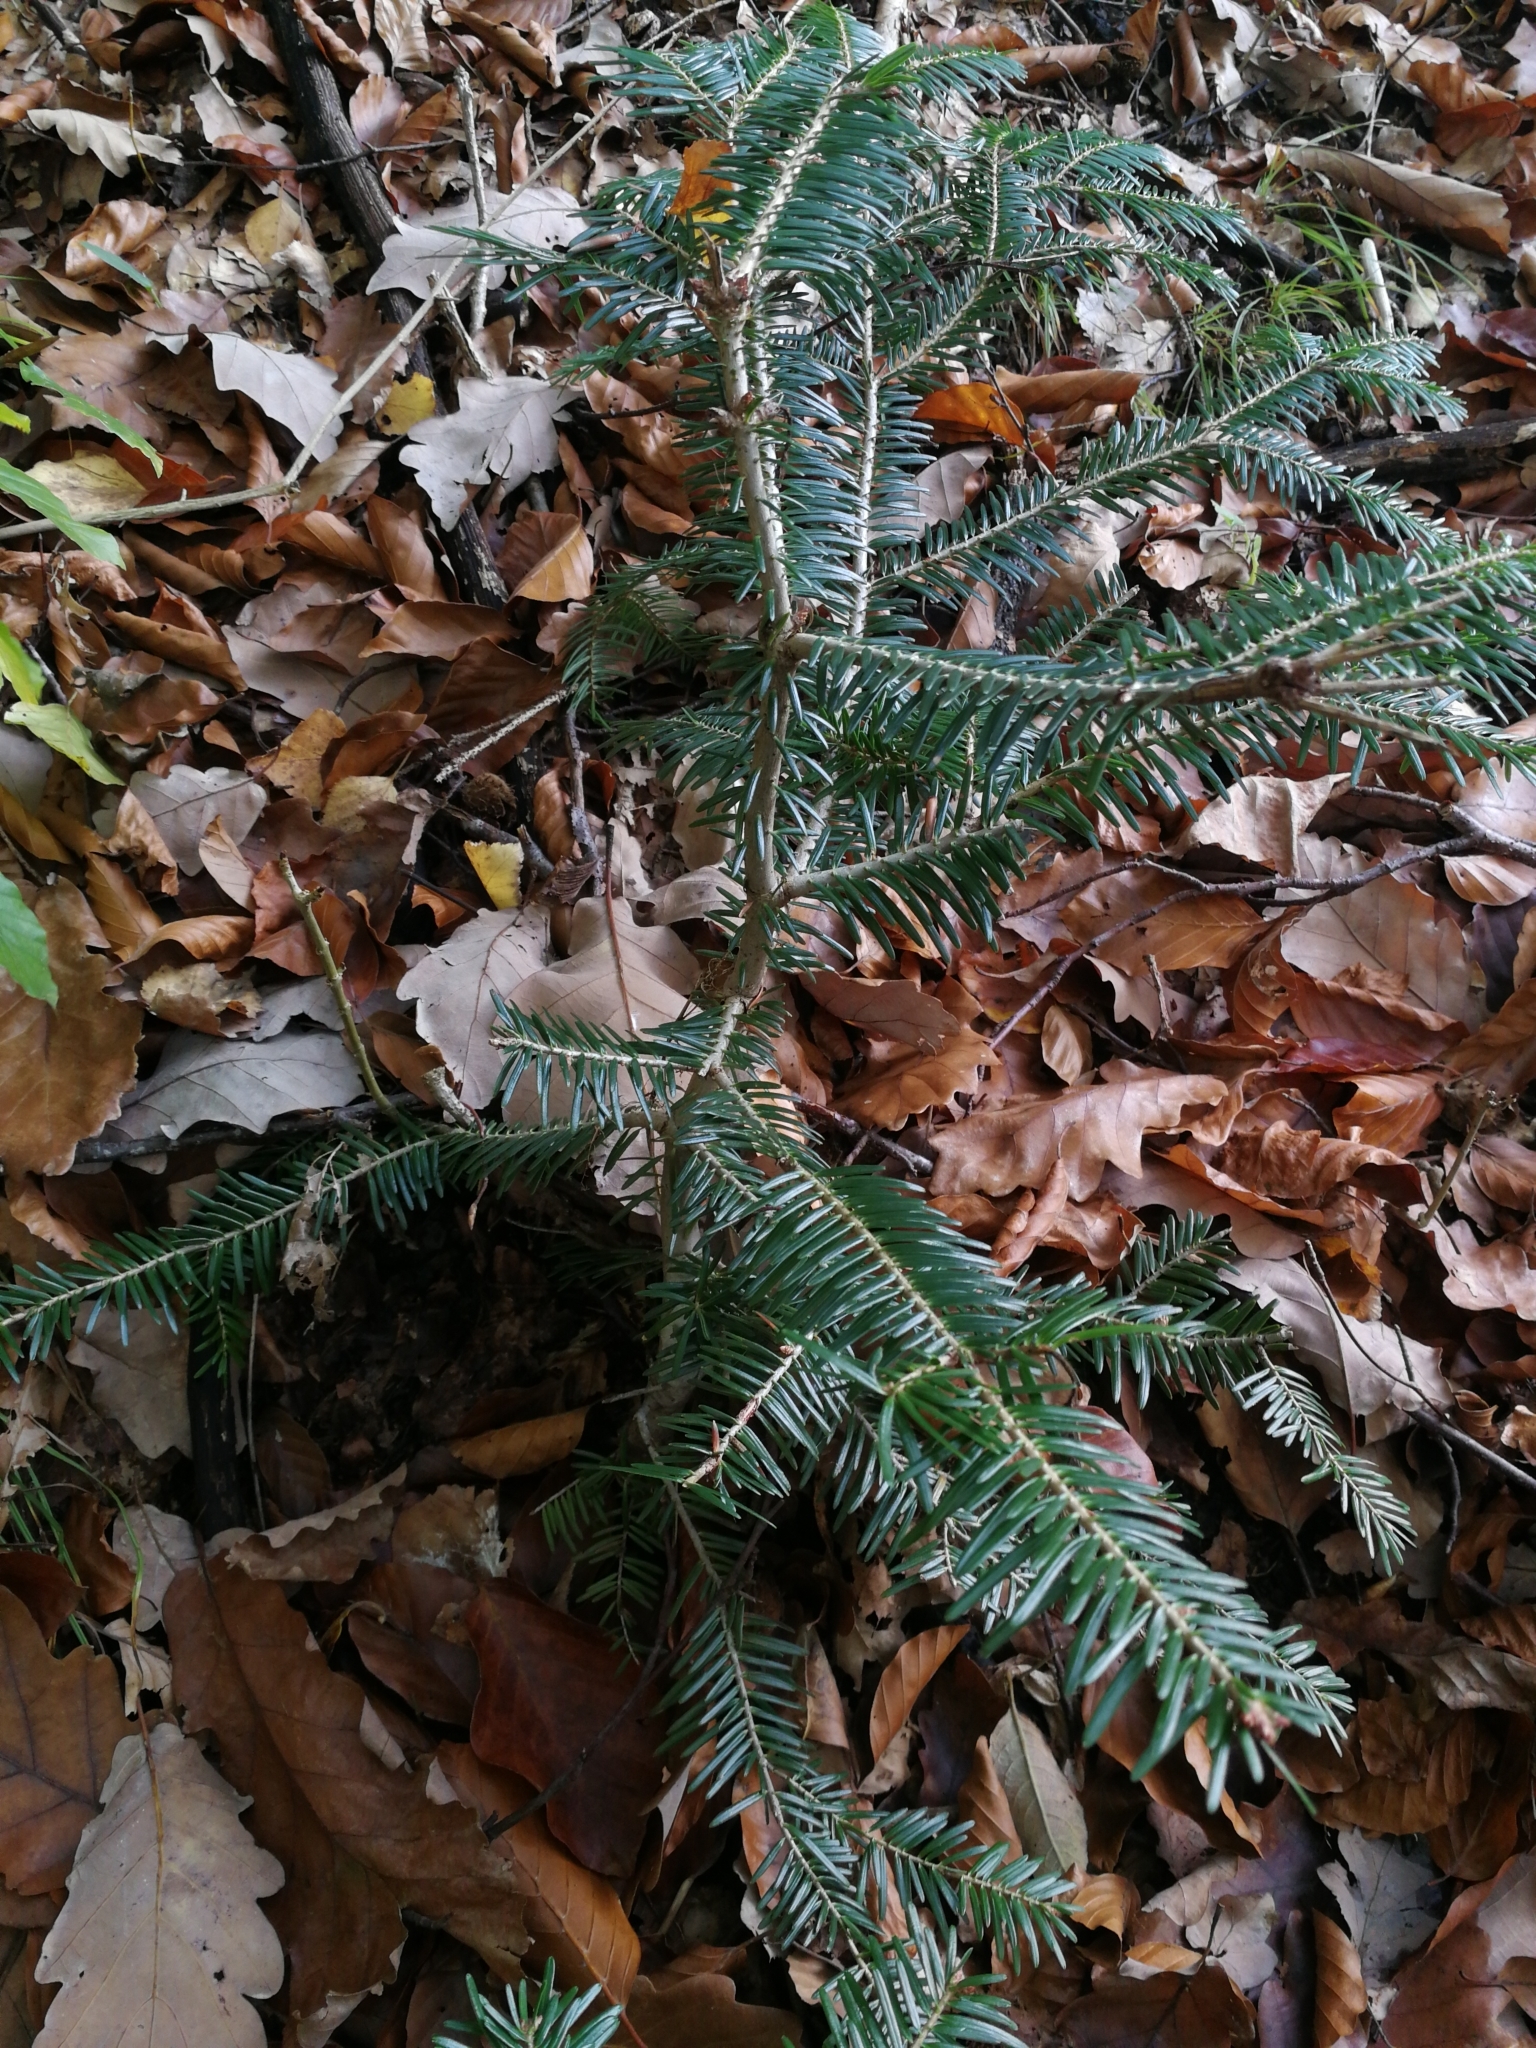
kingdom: Plantae
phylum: Tracheophyta
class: Pinopsida
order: Pinales
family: Pinaceae
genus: Abies
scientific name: Abies alba
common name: Silver fir
